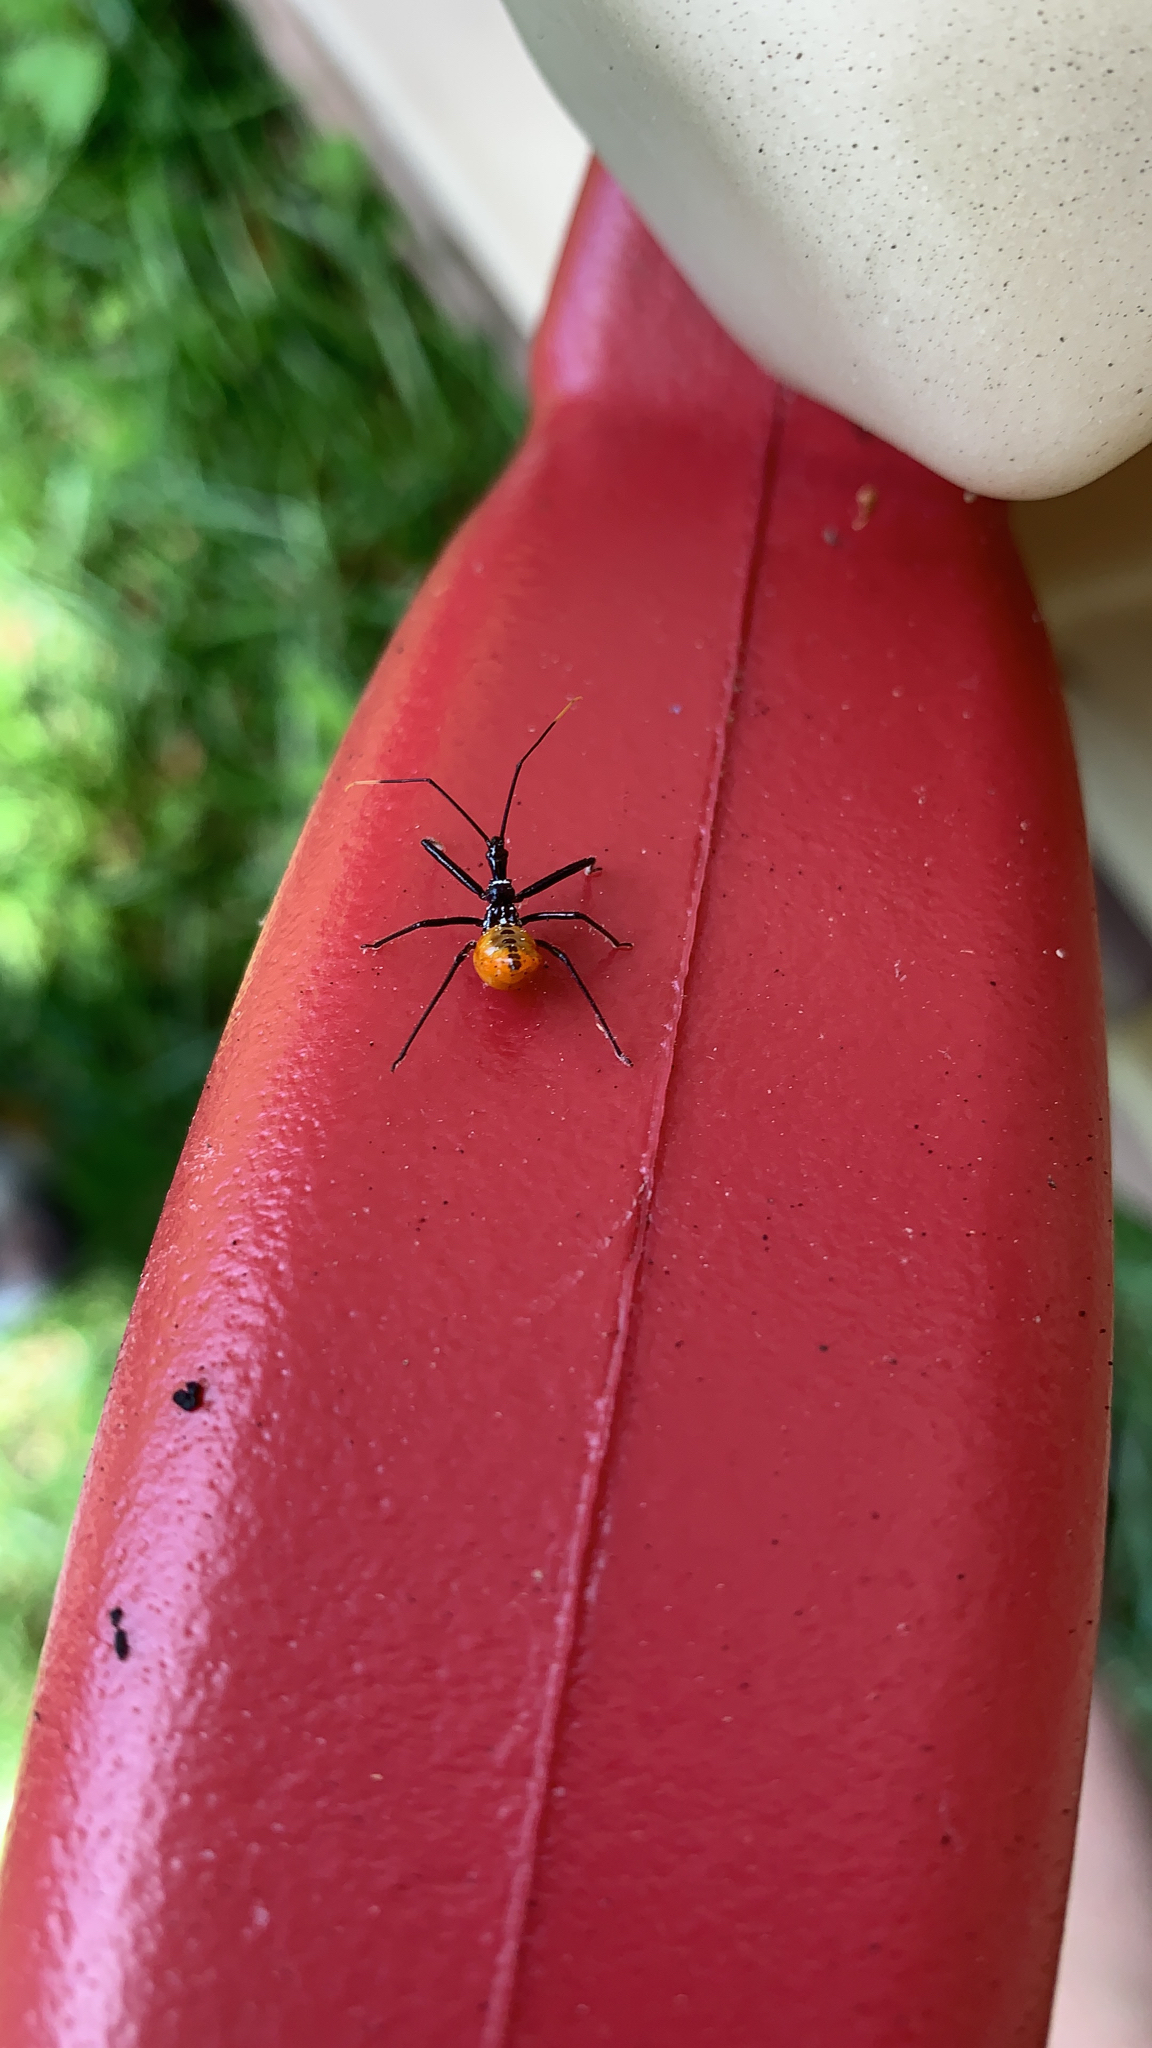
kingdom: Animalia
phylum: Arthropoda
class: Insecta
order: Hemiptera
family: Reduviidae
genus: Arilus
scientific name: Arilus cristatus
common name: North american wheel bug
